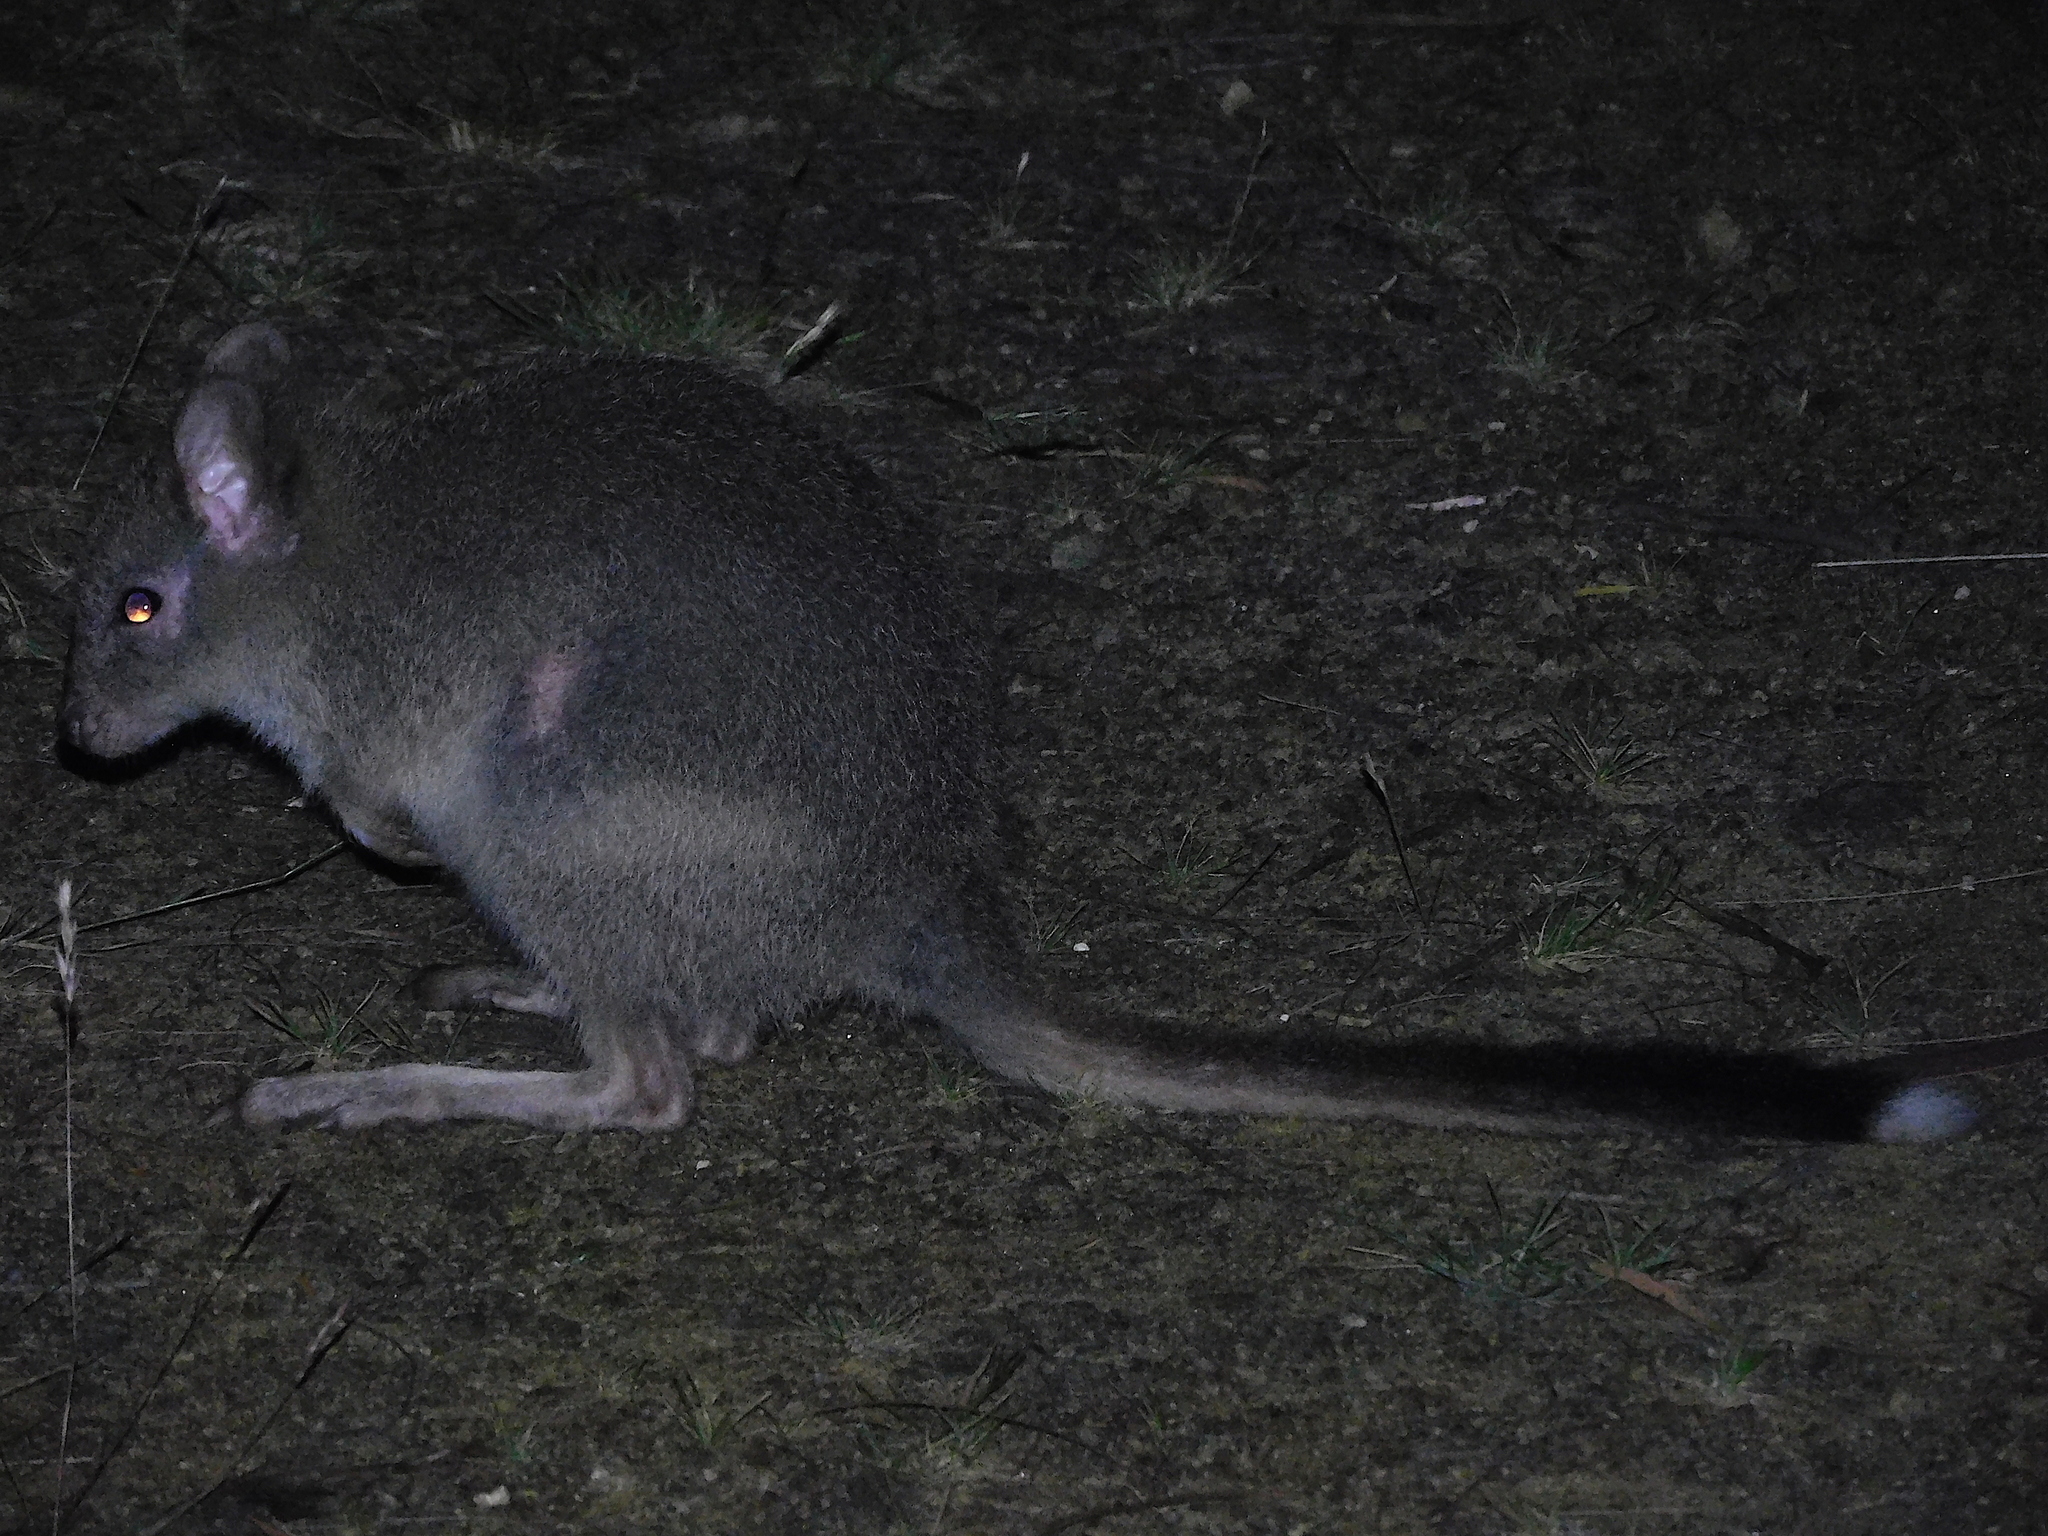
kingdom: Animalia
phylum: Chordata
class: Mammalia
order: Diprotodontia
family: Potoroidae
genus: Bettongia
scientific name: Bettongia gaimardi
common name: Eastern bettong
